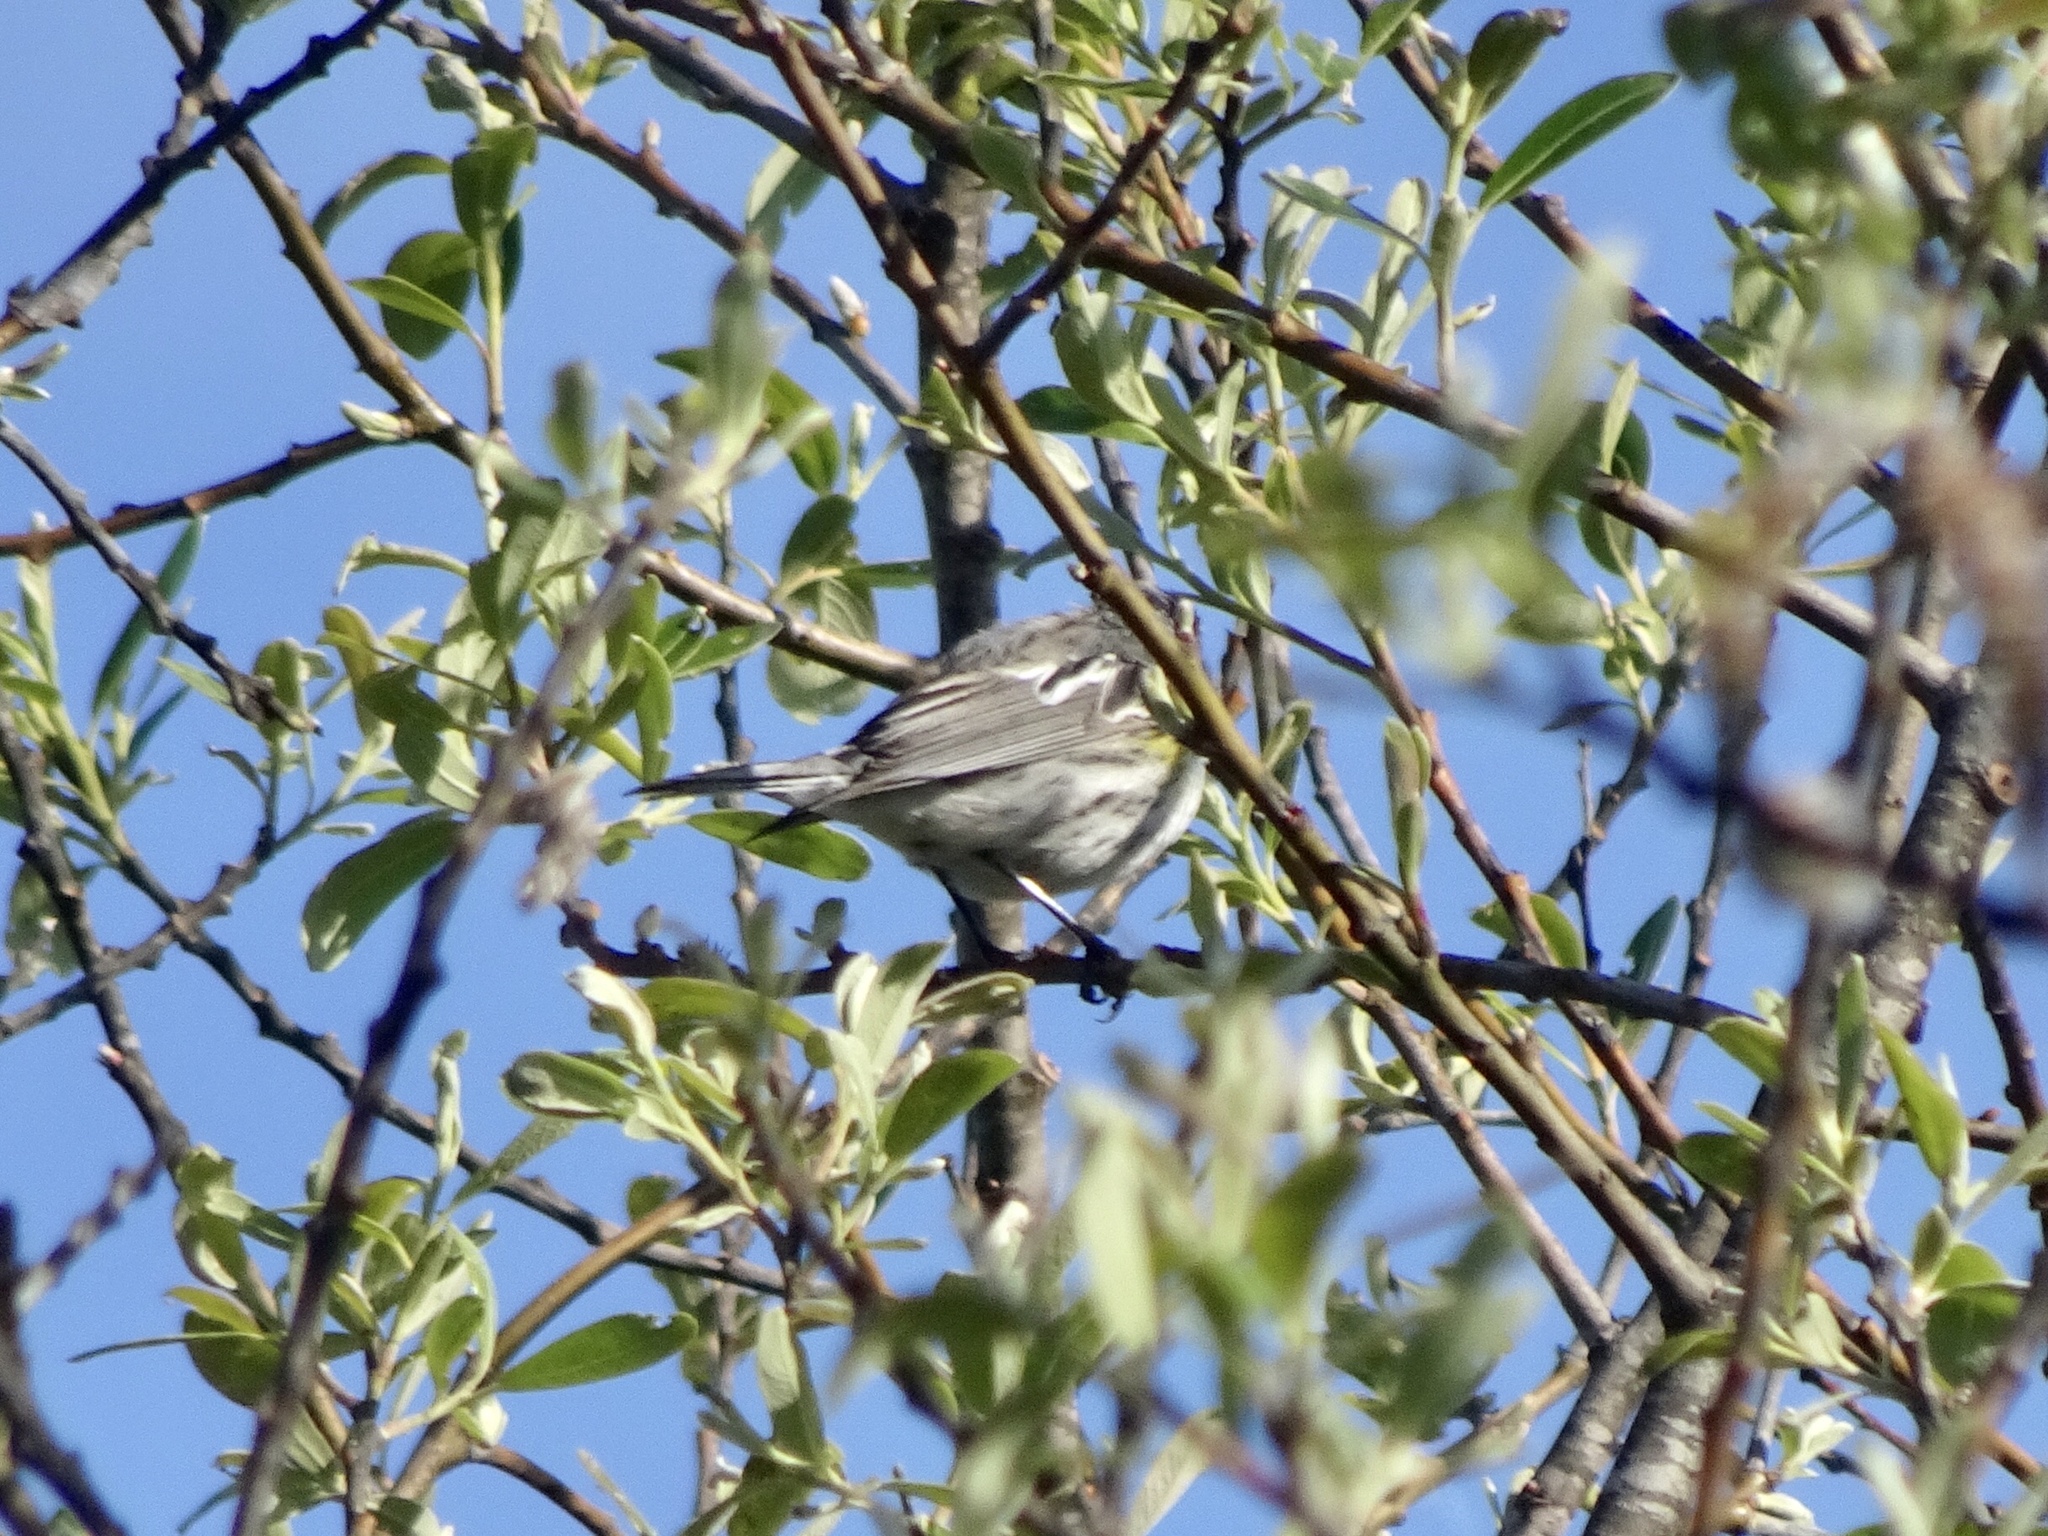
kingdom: Animalia
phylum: Chordata
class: Aves
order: Passeriformes
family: Parulidae
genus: Setophaga
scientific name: Setophaga coronata
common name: Myrtle warbler
